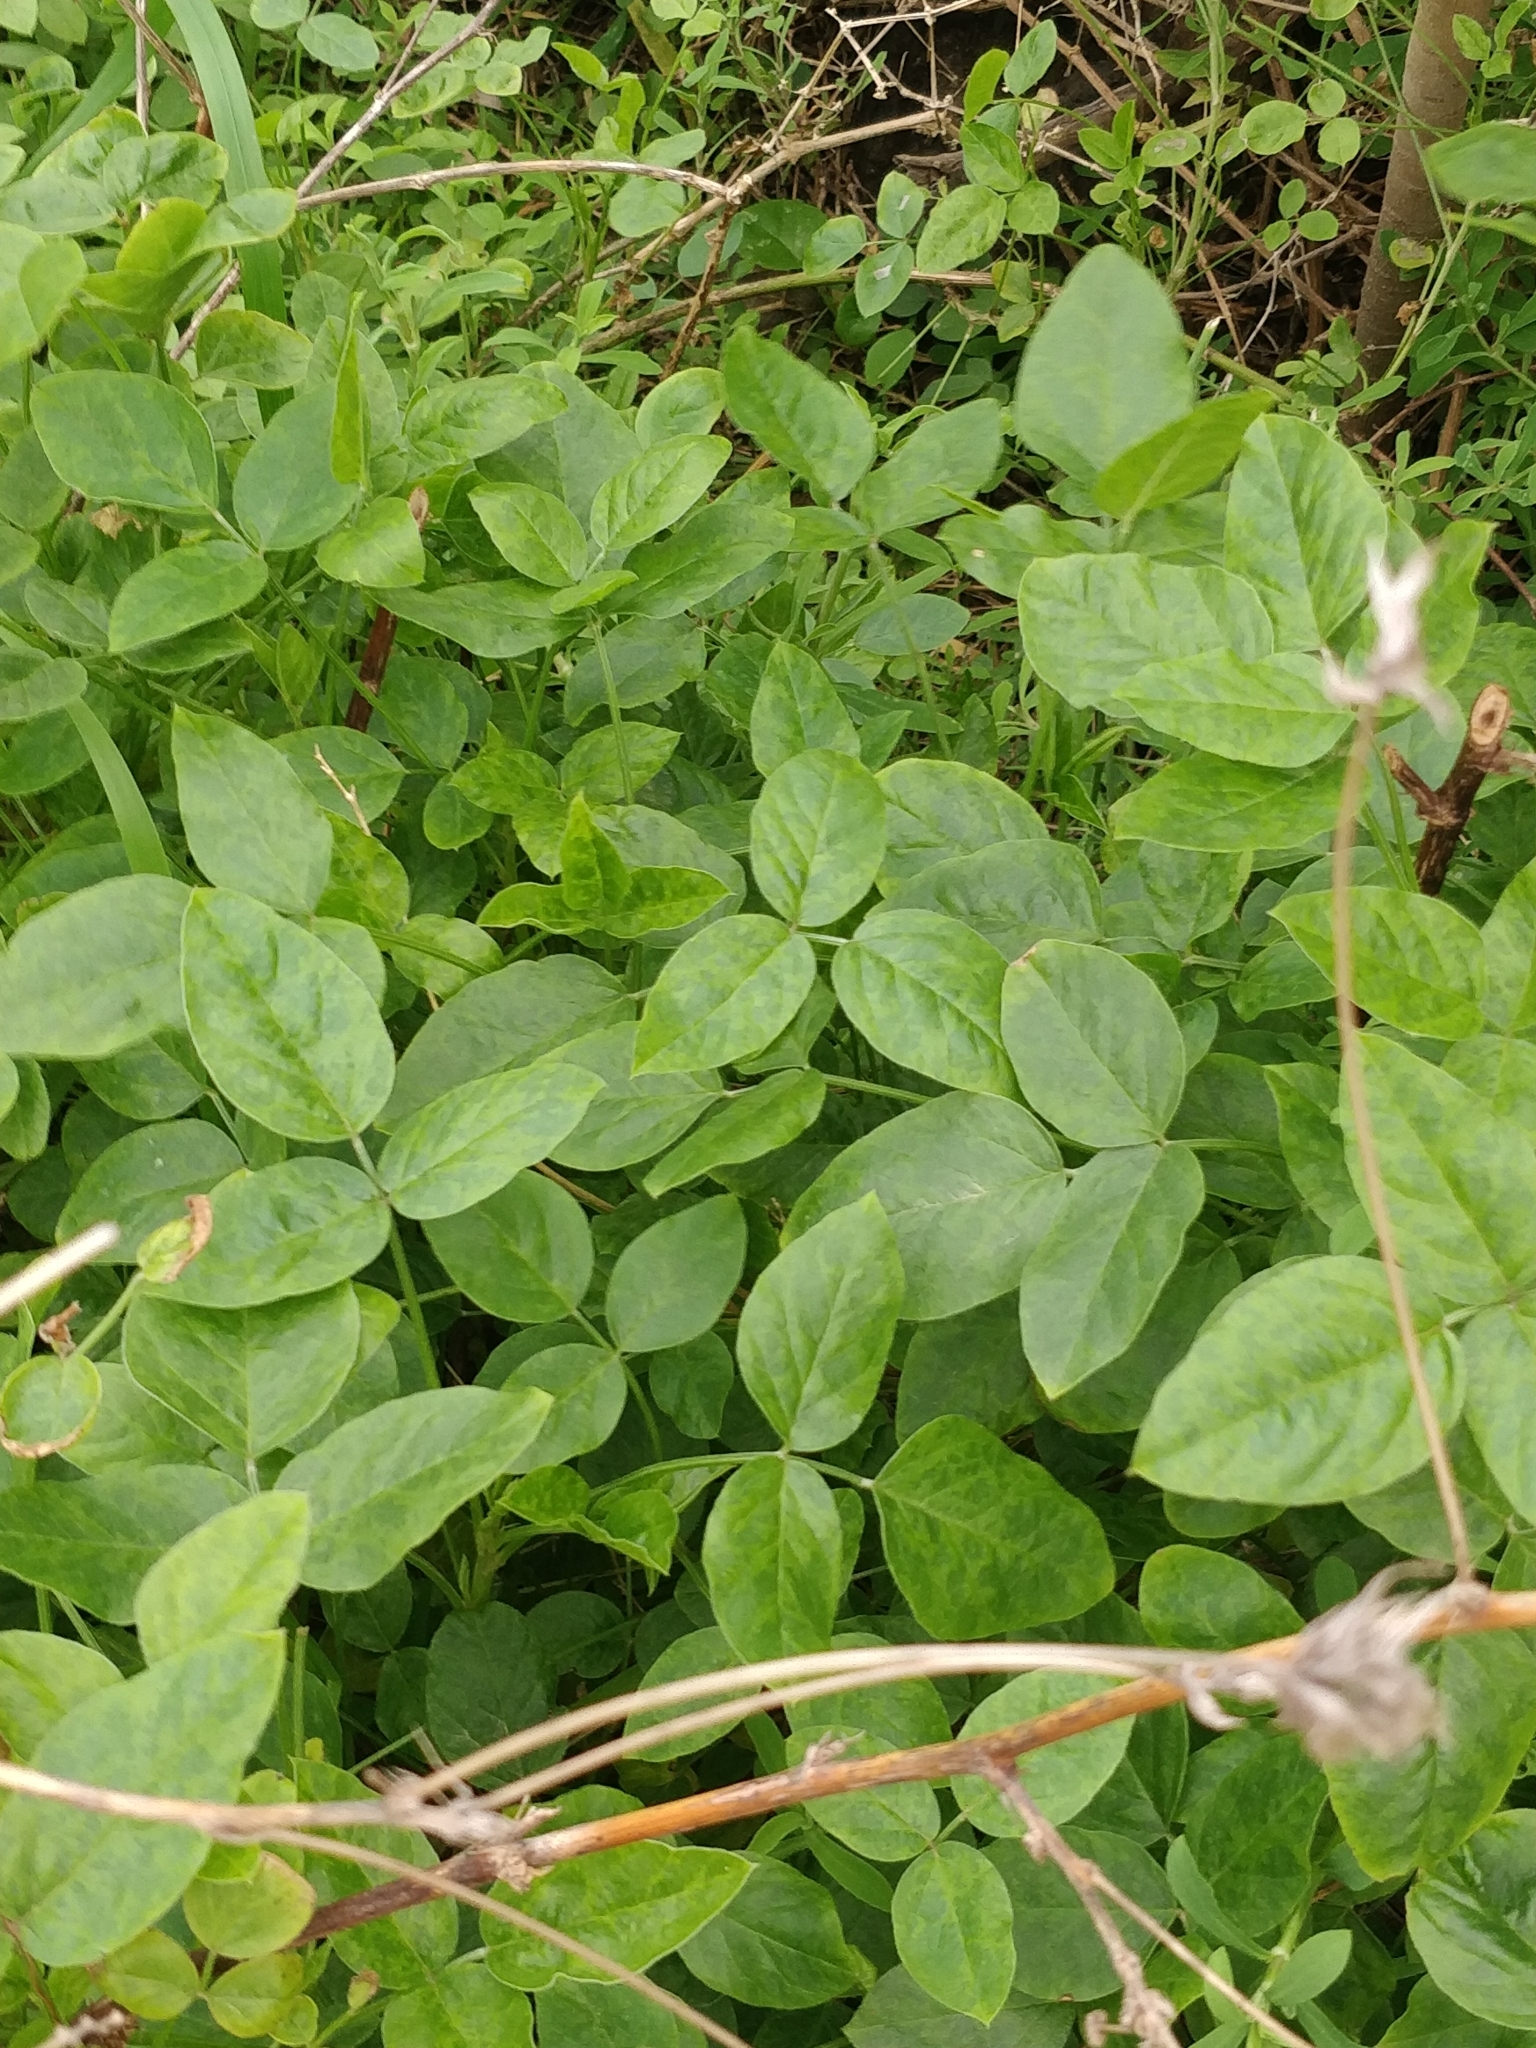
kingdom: Plantae
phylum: Tracheophyta
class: Magnoliopsida
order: Fabales
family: Fabaceae
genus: Bituminaria
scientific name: Bituminaria bituminosa
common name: Arabian pea
